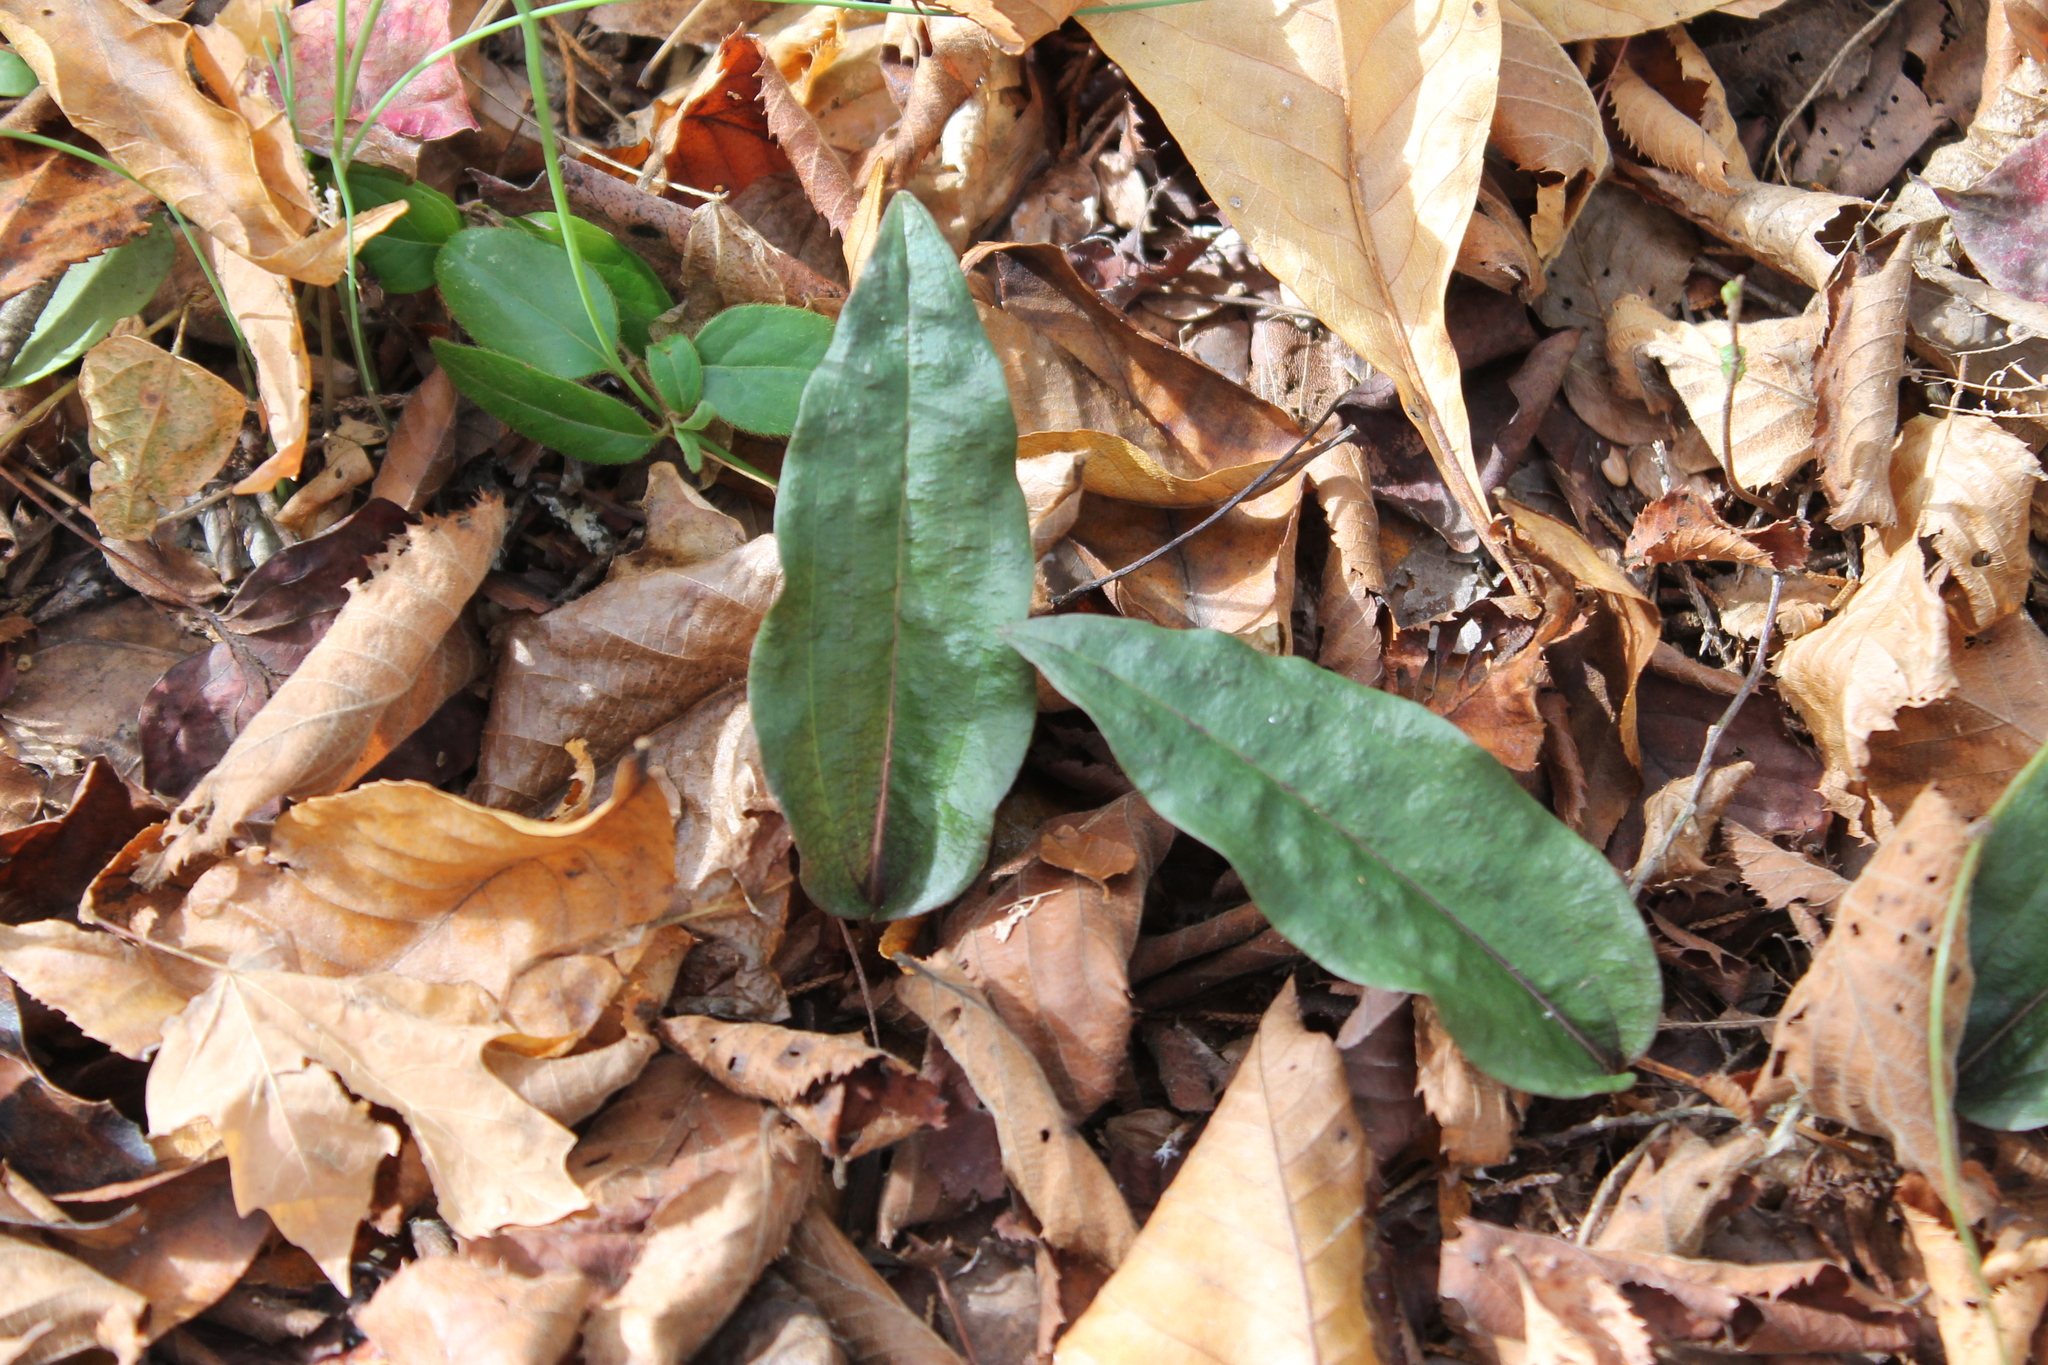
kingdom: Plantae
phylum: Tracheophyta
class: Liliopsida
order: Asparagales
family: Orchidaceae
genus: Tipularia
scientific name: Tipularia discolor
